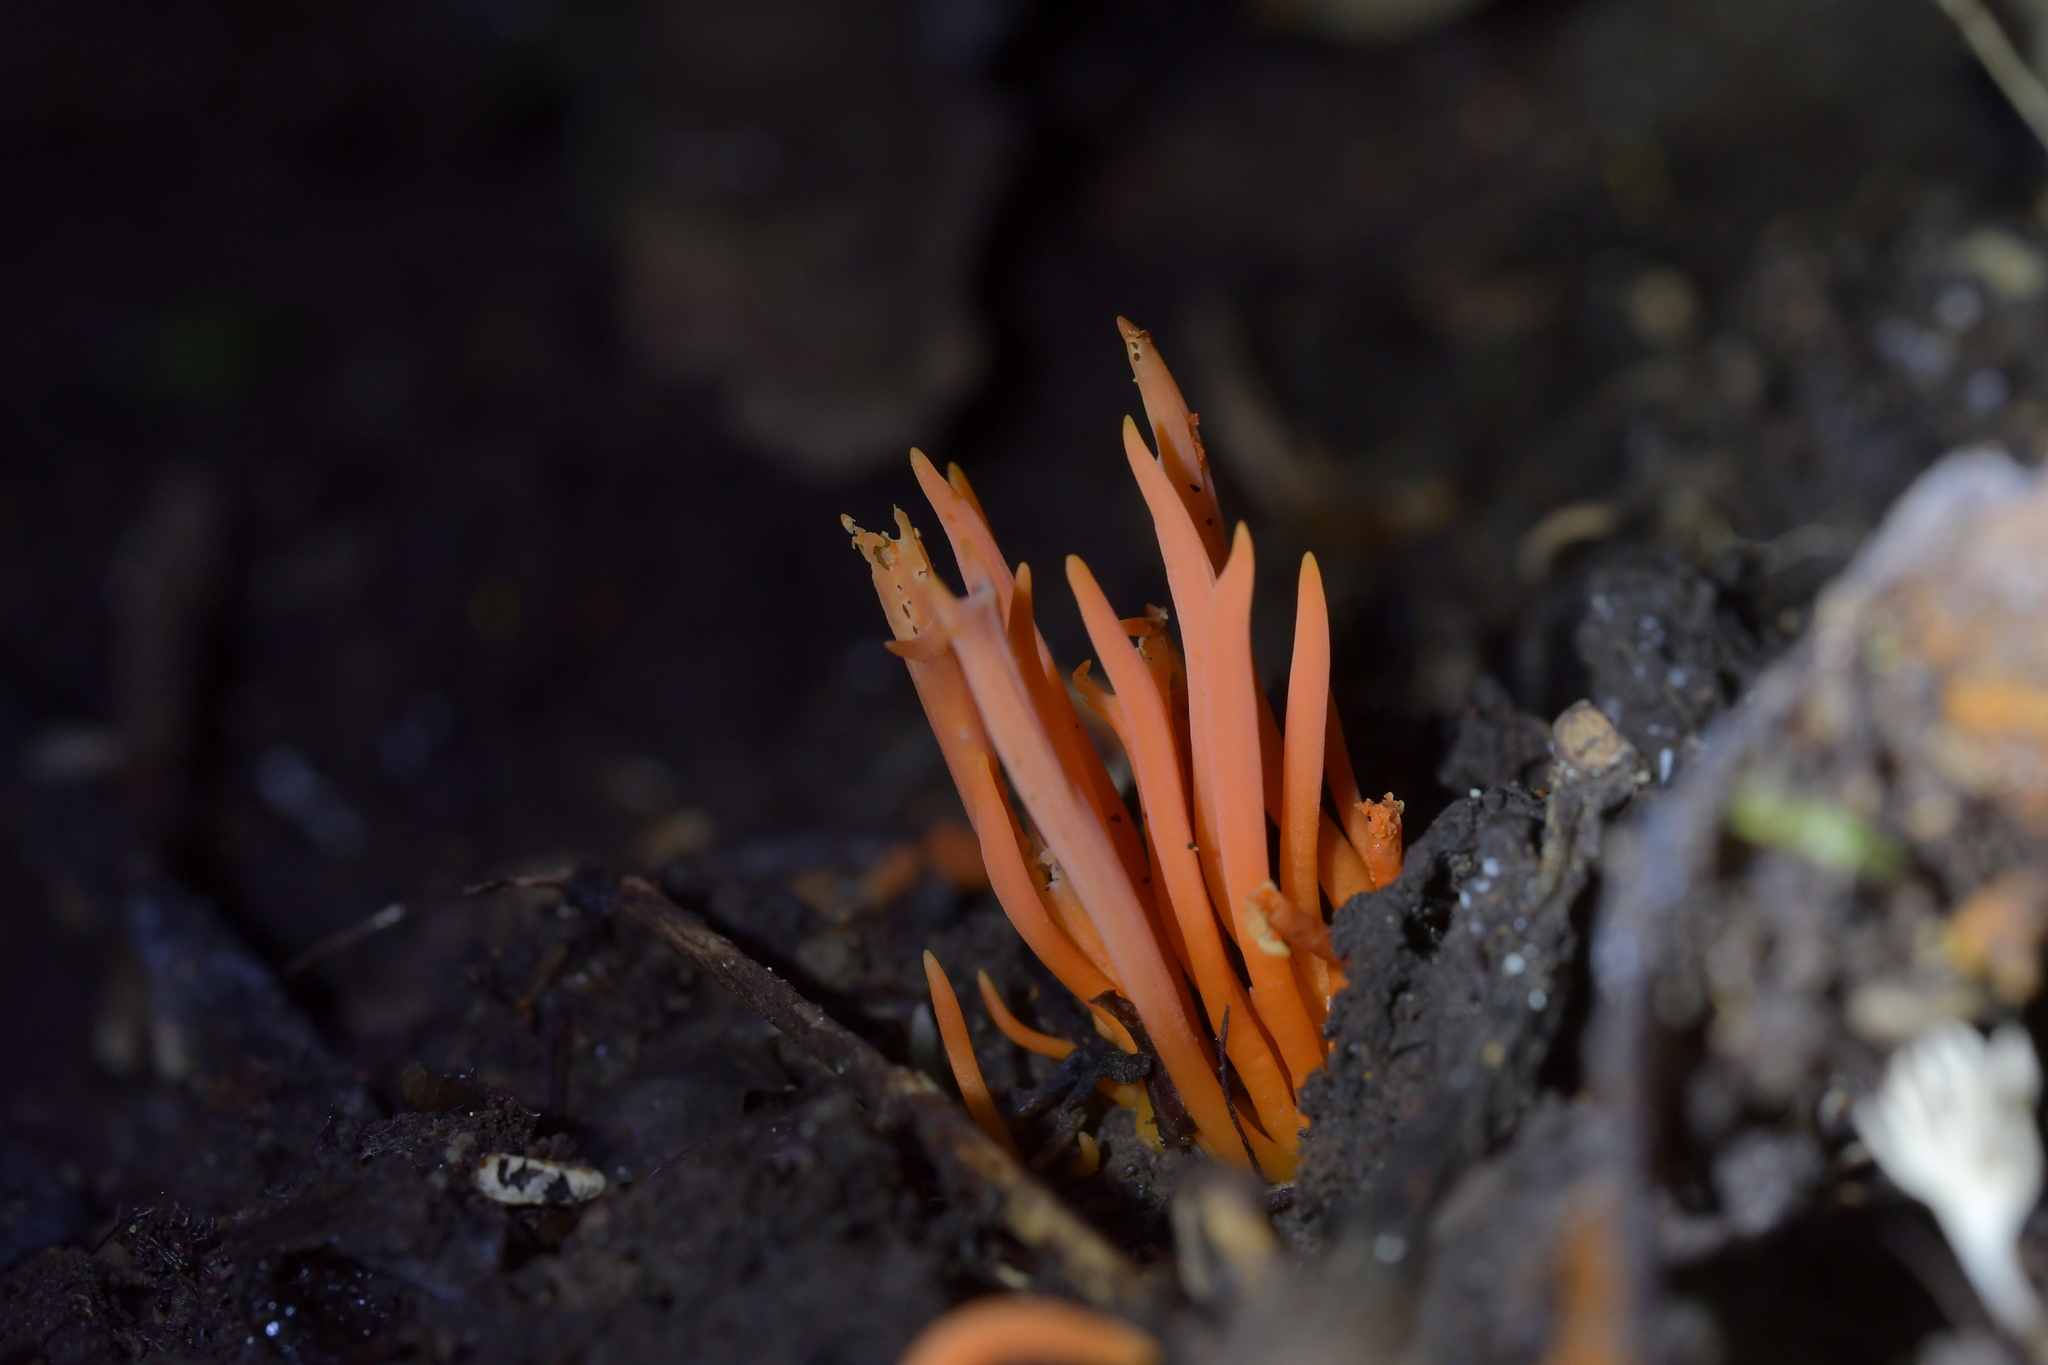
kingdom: Fungi
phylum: Basidiomycota
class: Agaricomycetes
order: Agaricales
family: Clavariaceae
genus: Clavulinopsis
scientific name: Clavulinopsis corallinorosacea
